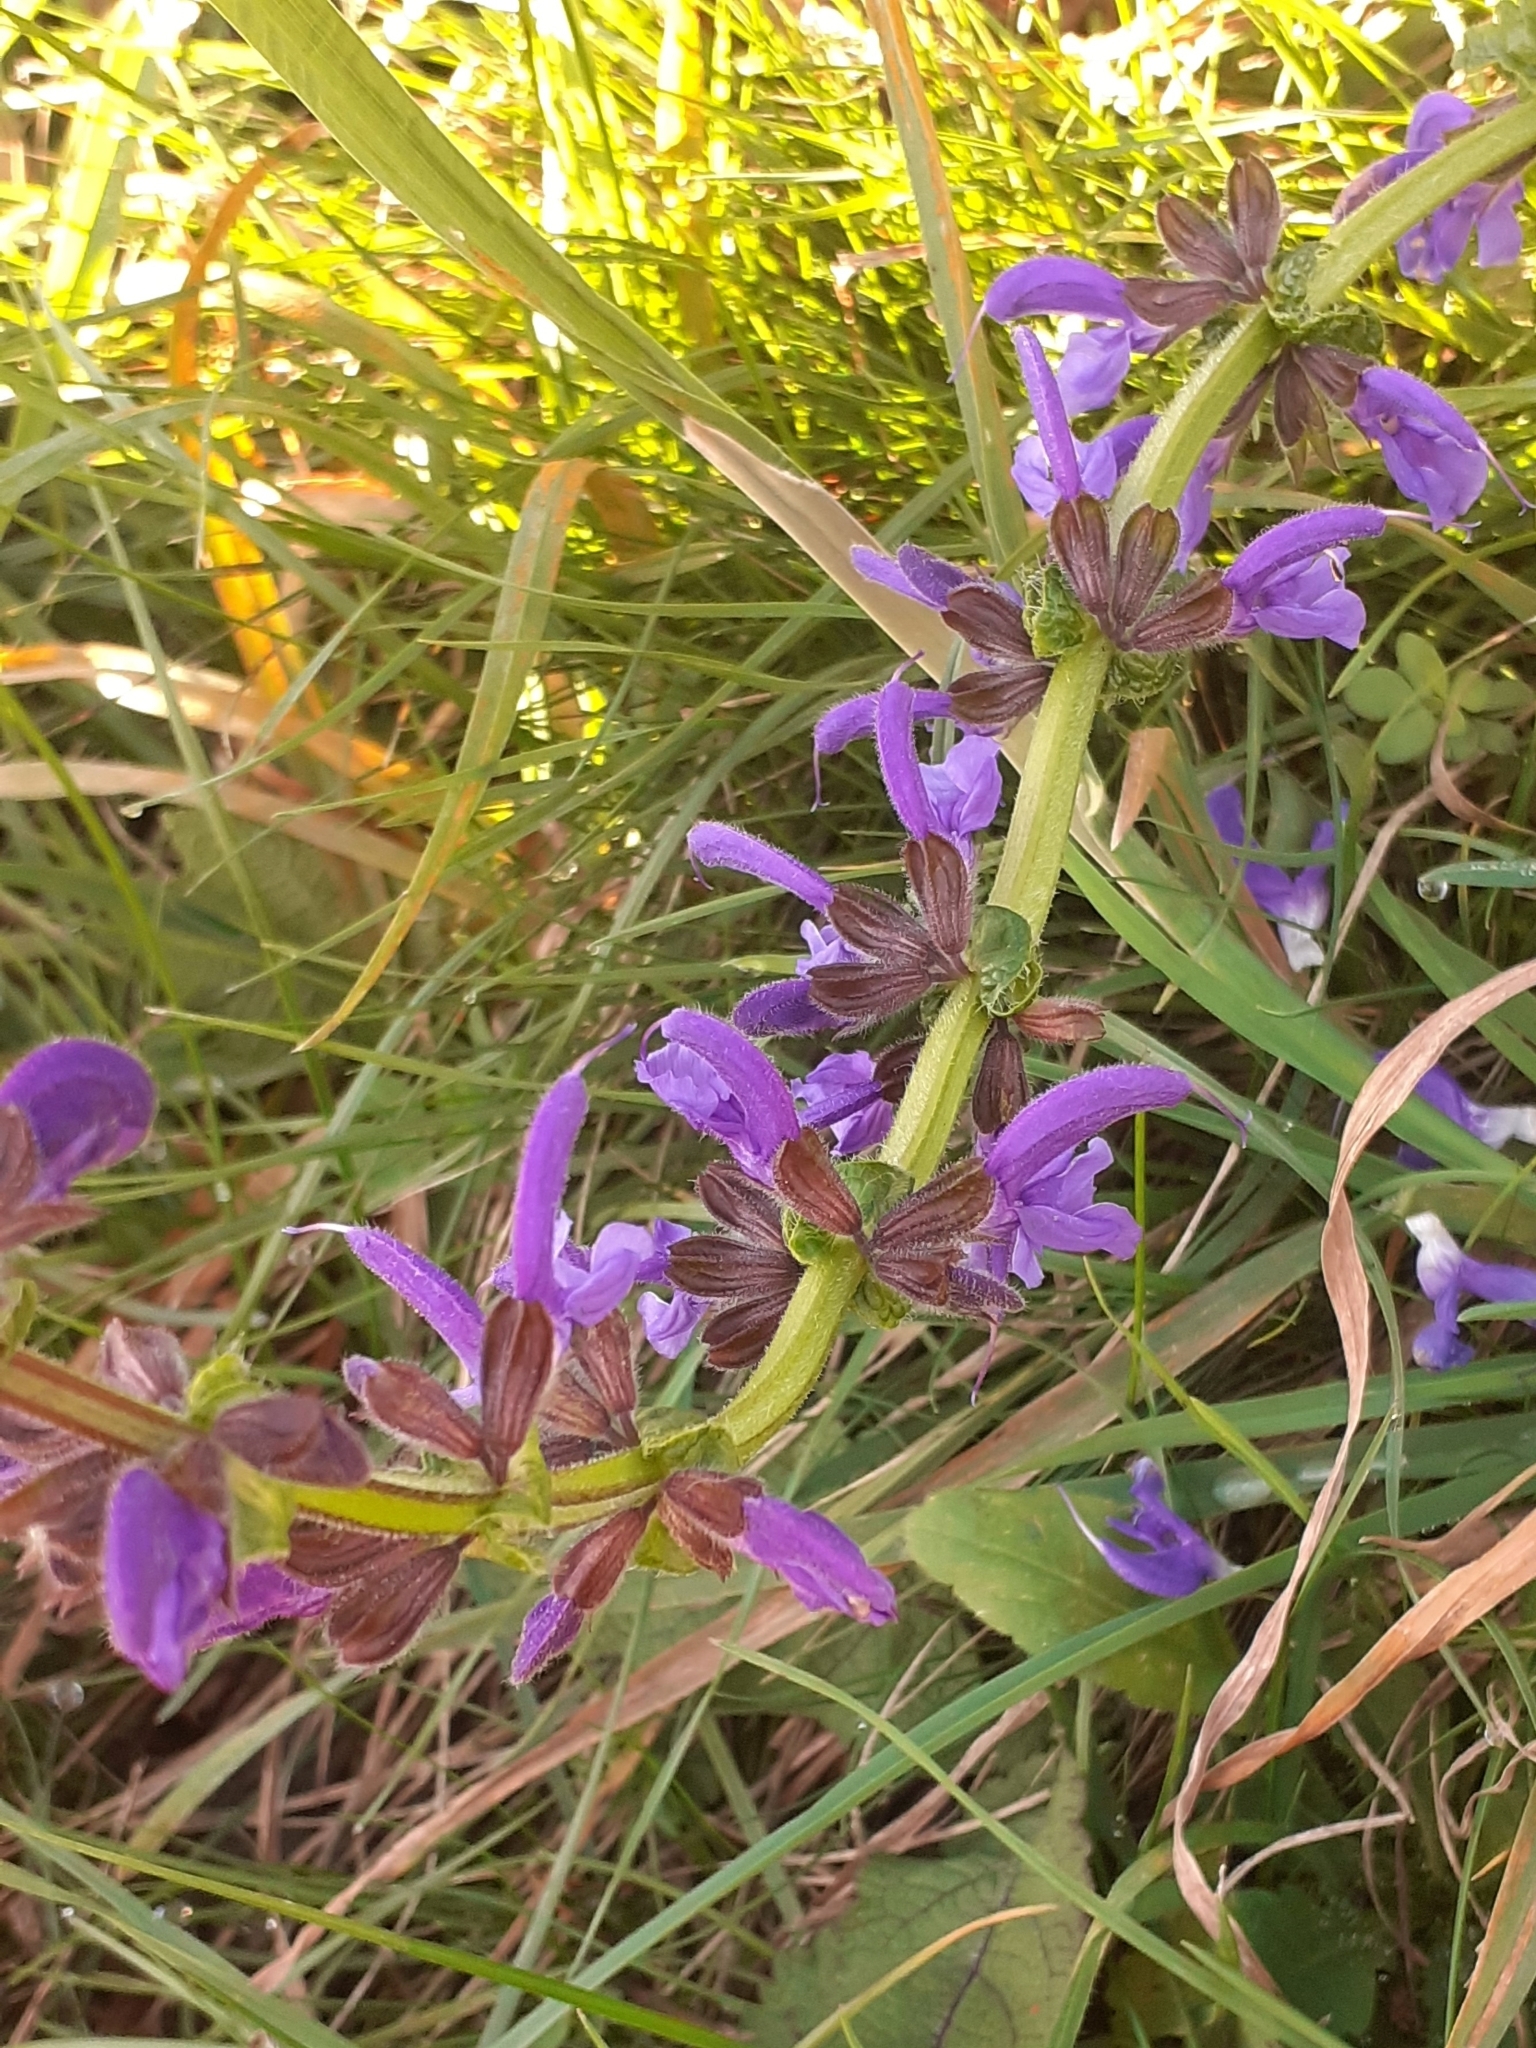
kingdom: Plantae
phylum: Tracheophyta
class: Magnoliopsida
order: Lamiales
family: Lamiaceae
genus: Salvia
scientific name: Salvia pratensis
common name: Meadow sage
